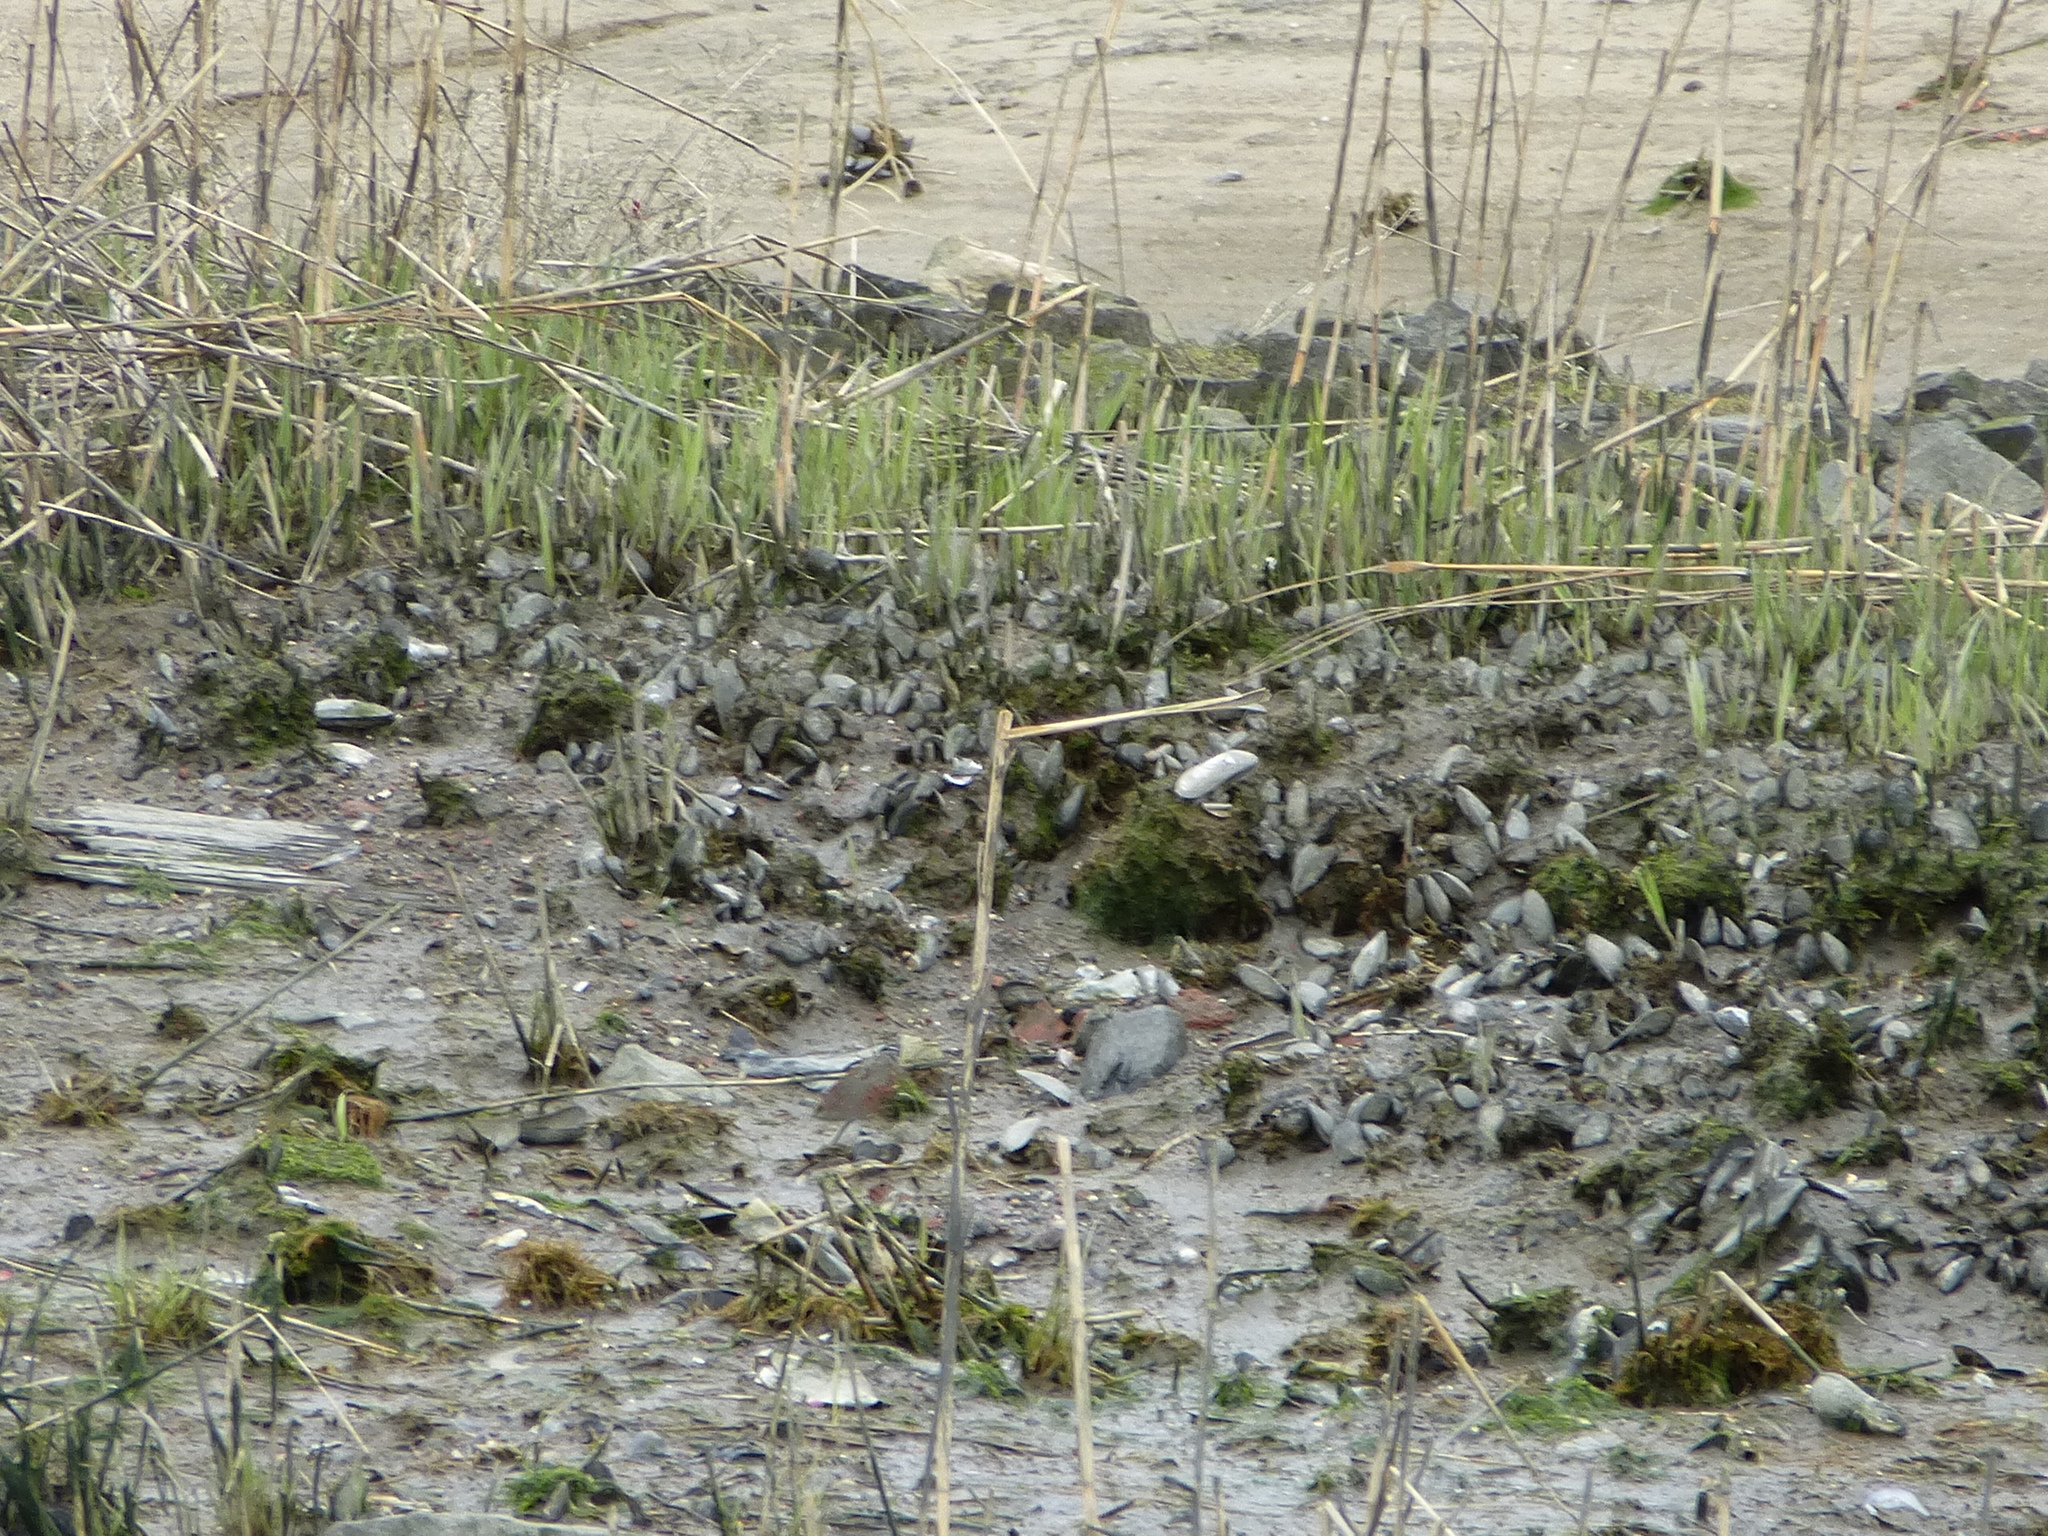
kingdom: Animalia
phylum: Mollusca
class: Bivalvia
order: Mytilida
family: Mytilidae
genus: Geukensia
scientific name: Geukensia demissa
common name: Ribbed mussel
